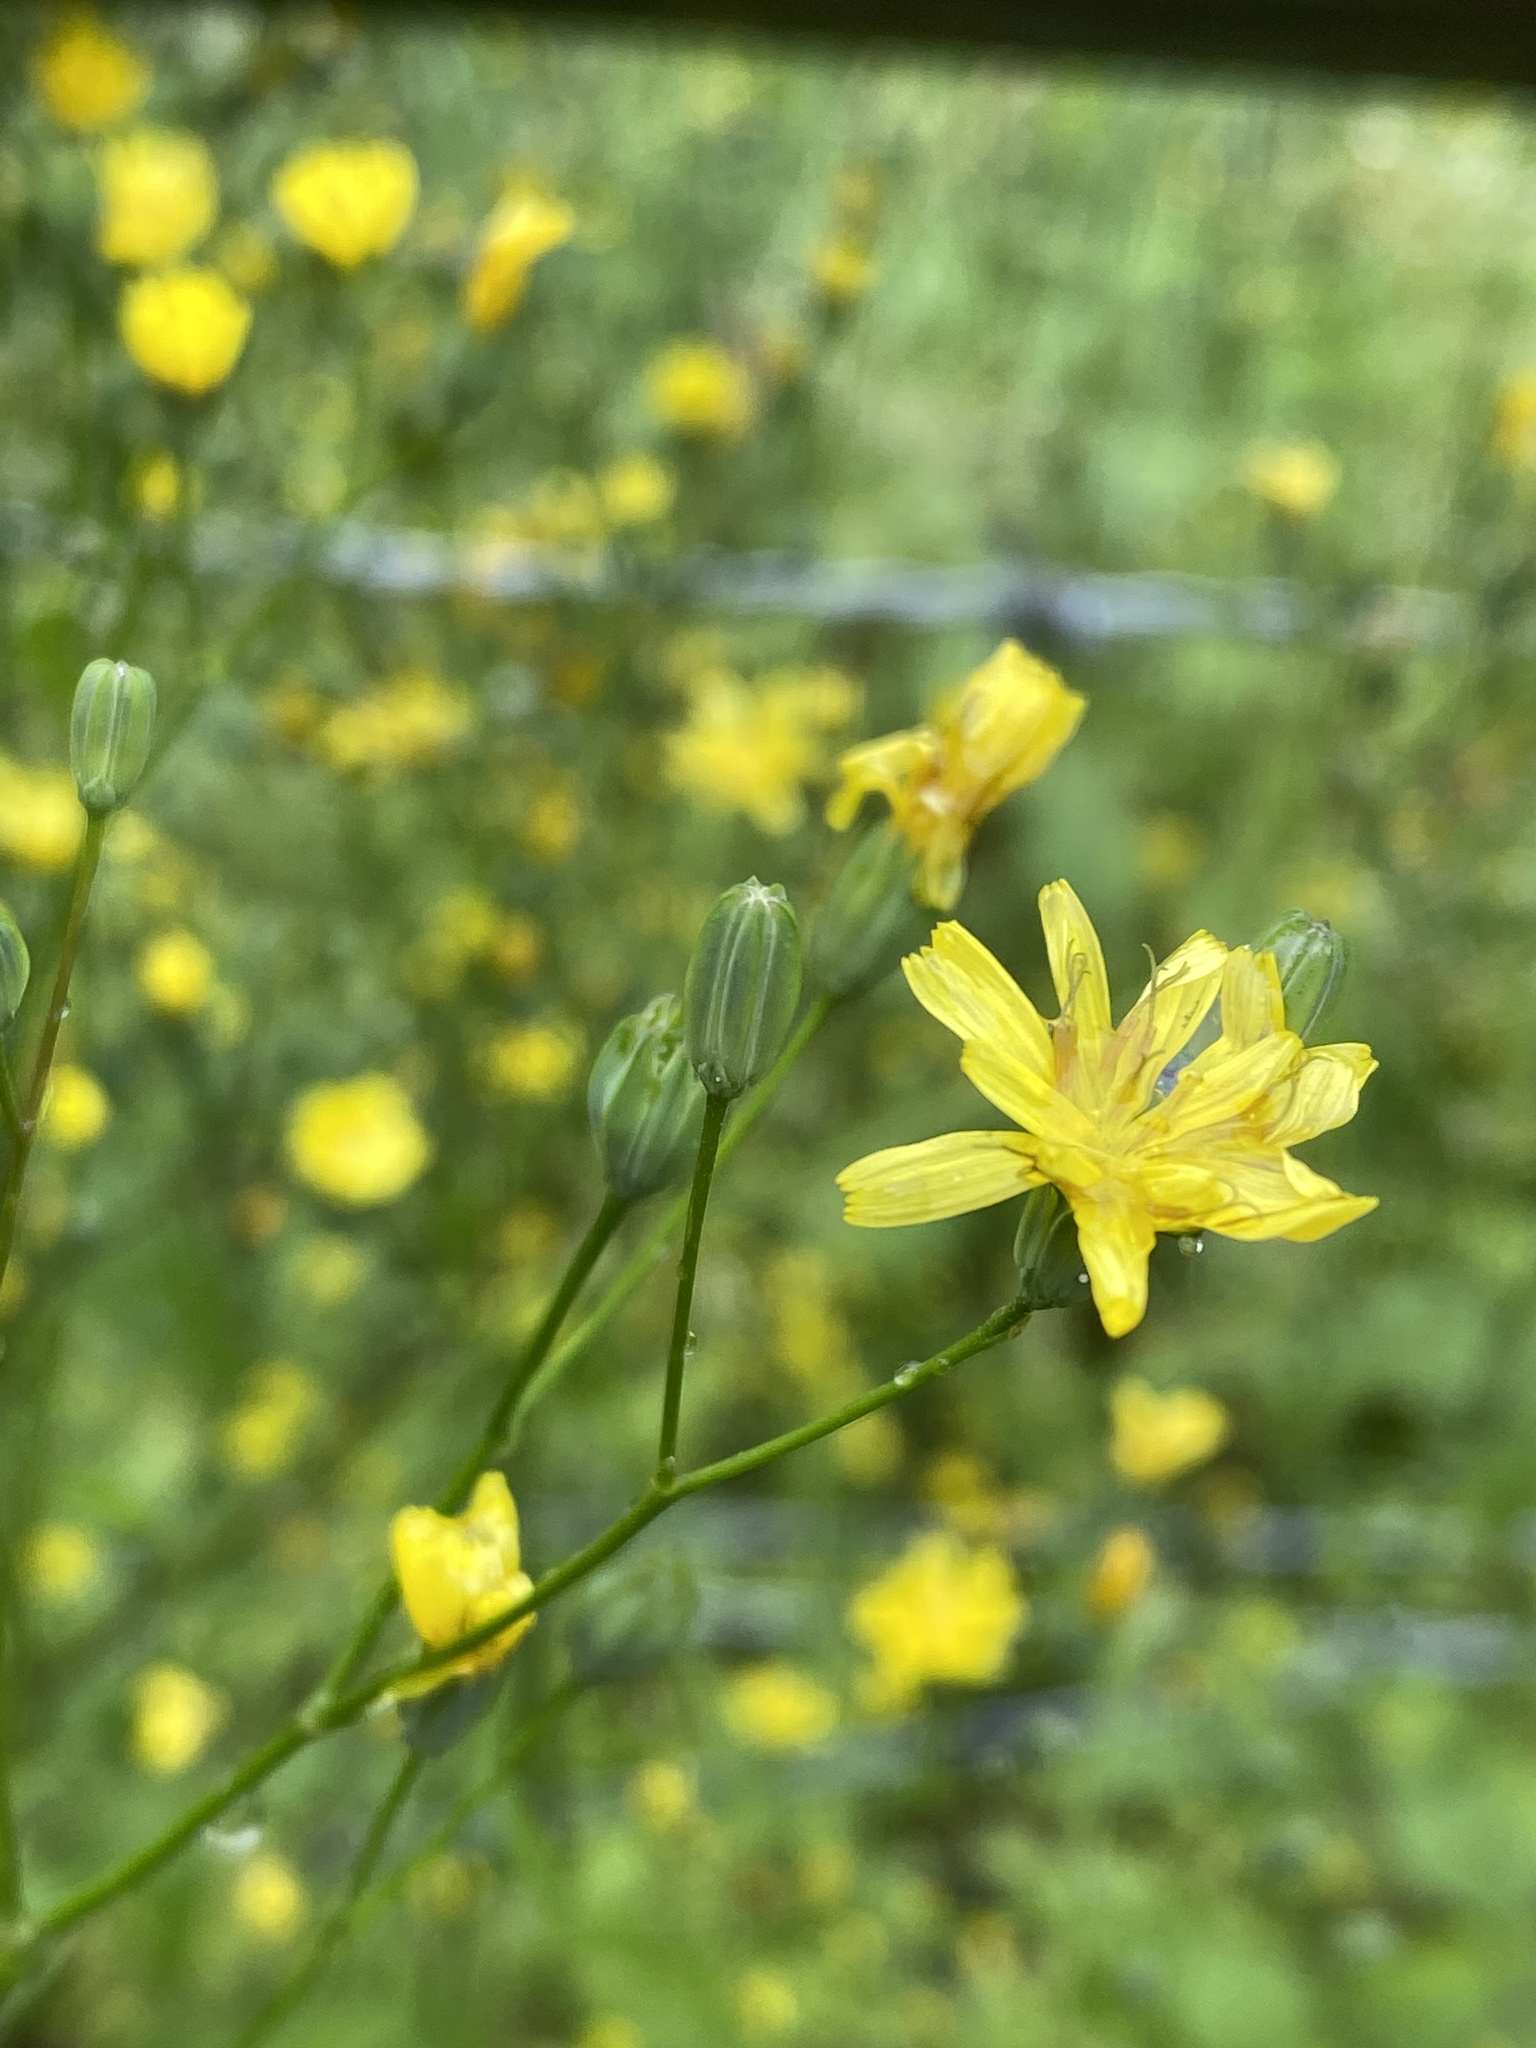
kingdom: Plantae
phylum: Tracheophyta
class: Magnoliopsida
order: Asterales
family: Asteraceae
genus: Lapsana
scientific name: Lapsana communis
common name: Nipplewort
